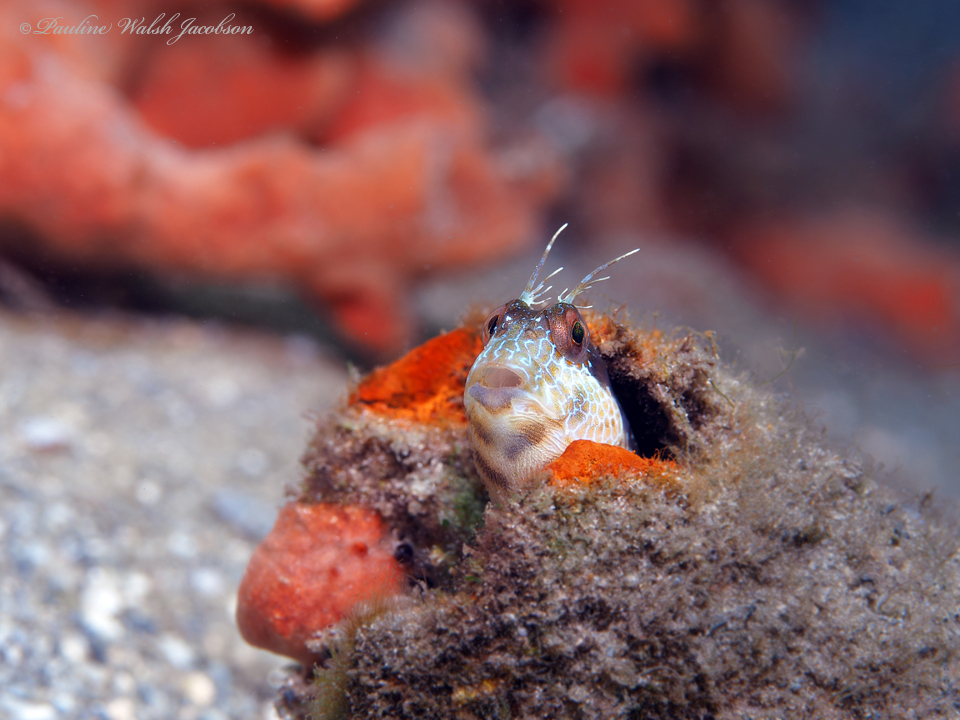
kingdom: Animalia
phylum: Chordata
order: Perciformes
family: Blenniidae
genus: Parablennius
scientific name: Parablennius marmoreus
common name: Seaweed blenny
